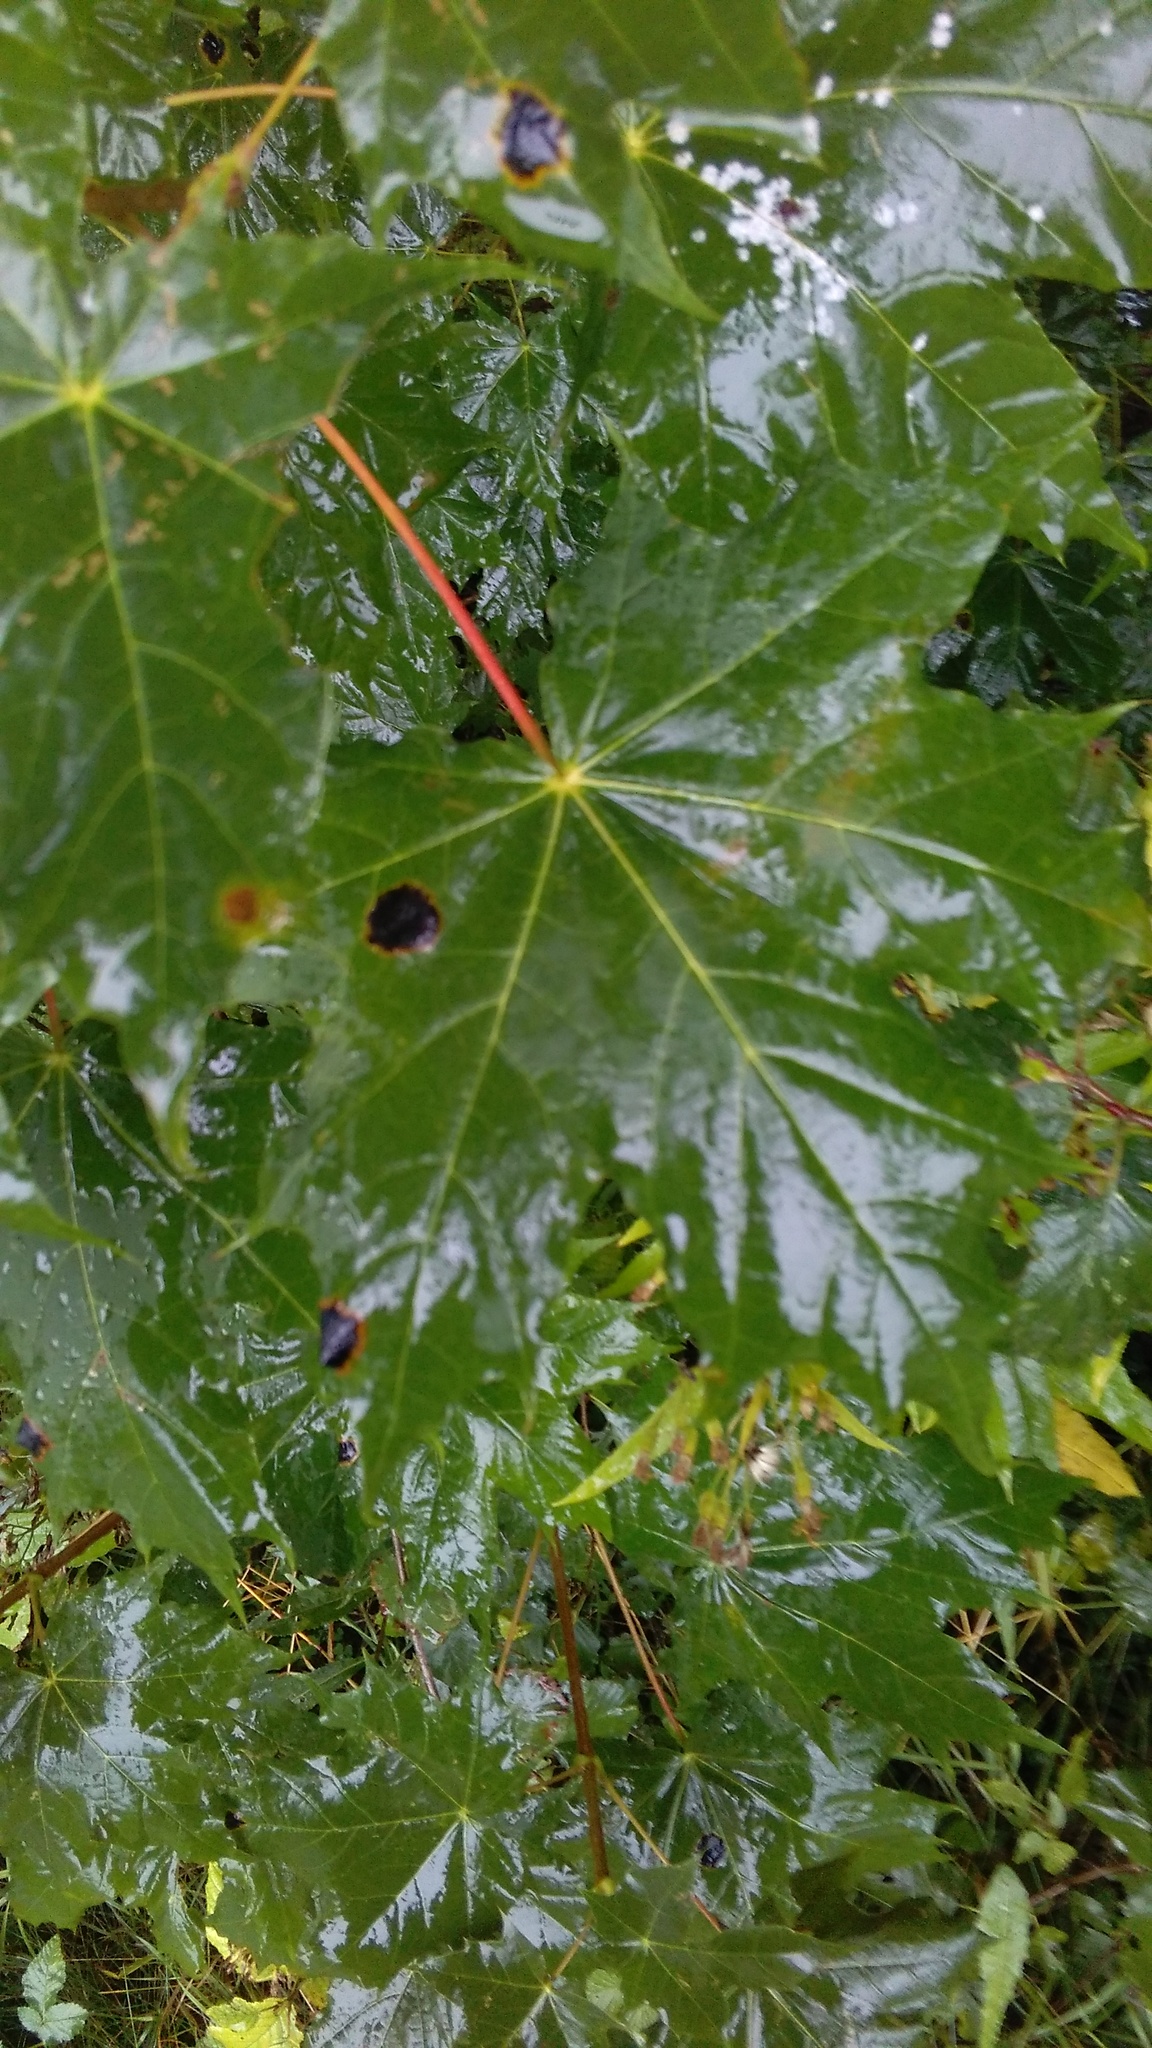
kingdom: Plantae
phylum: Tracheophyta
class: Magnoliopsida
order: Sapindales
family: Sapindaceae
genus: Acer
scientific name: Acer platanoides
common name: Norway maple
